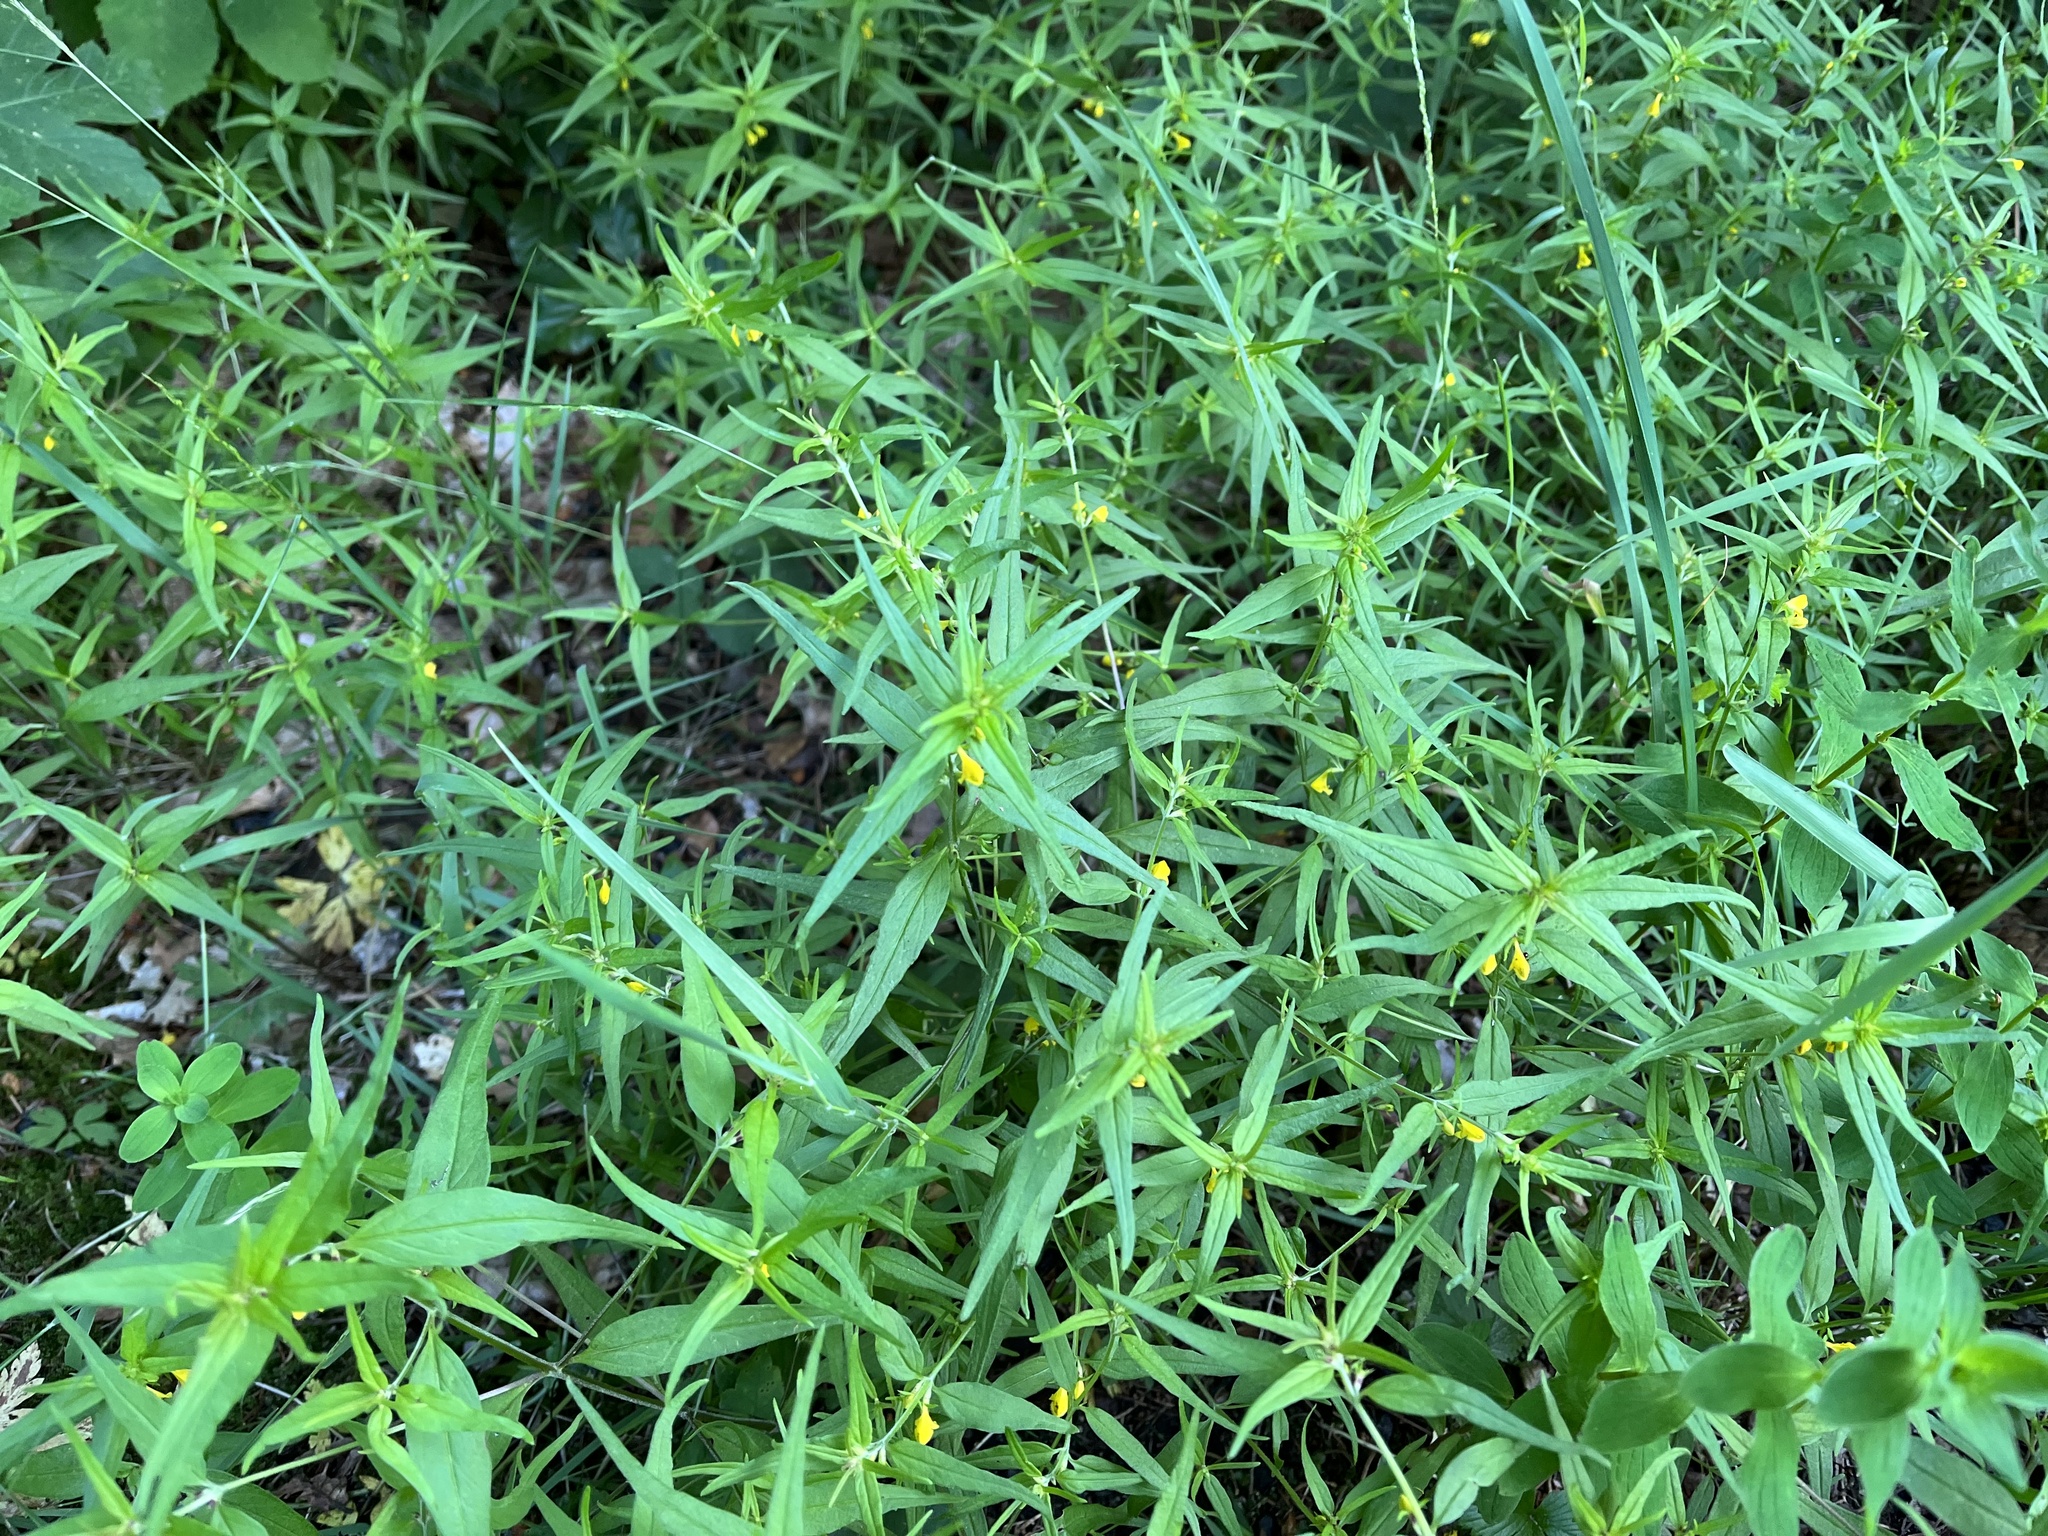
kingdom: Plantae
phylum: Tracheophyta
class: Magnoliopsida
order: Lamiales
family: Orobanchaceae
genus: Melampyrum
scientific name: Melampyrum sylvaticum
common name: Small cow-wheat
